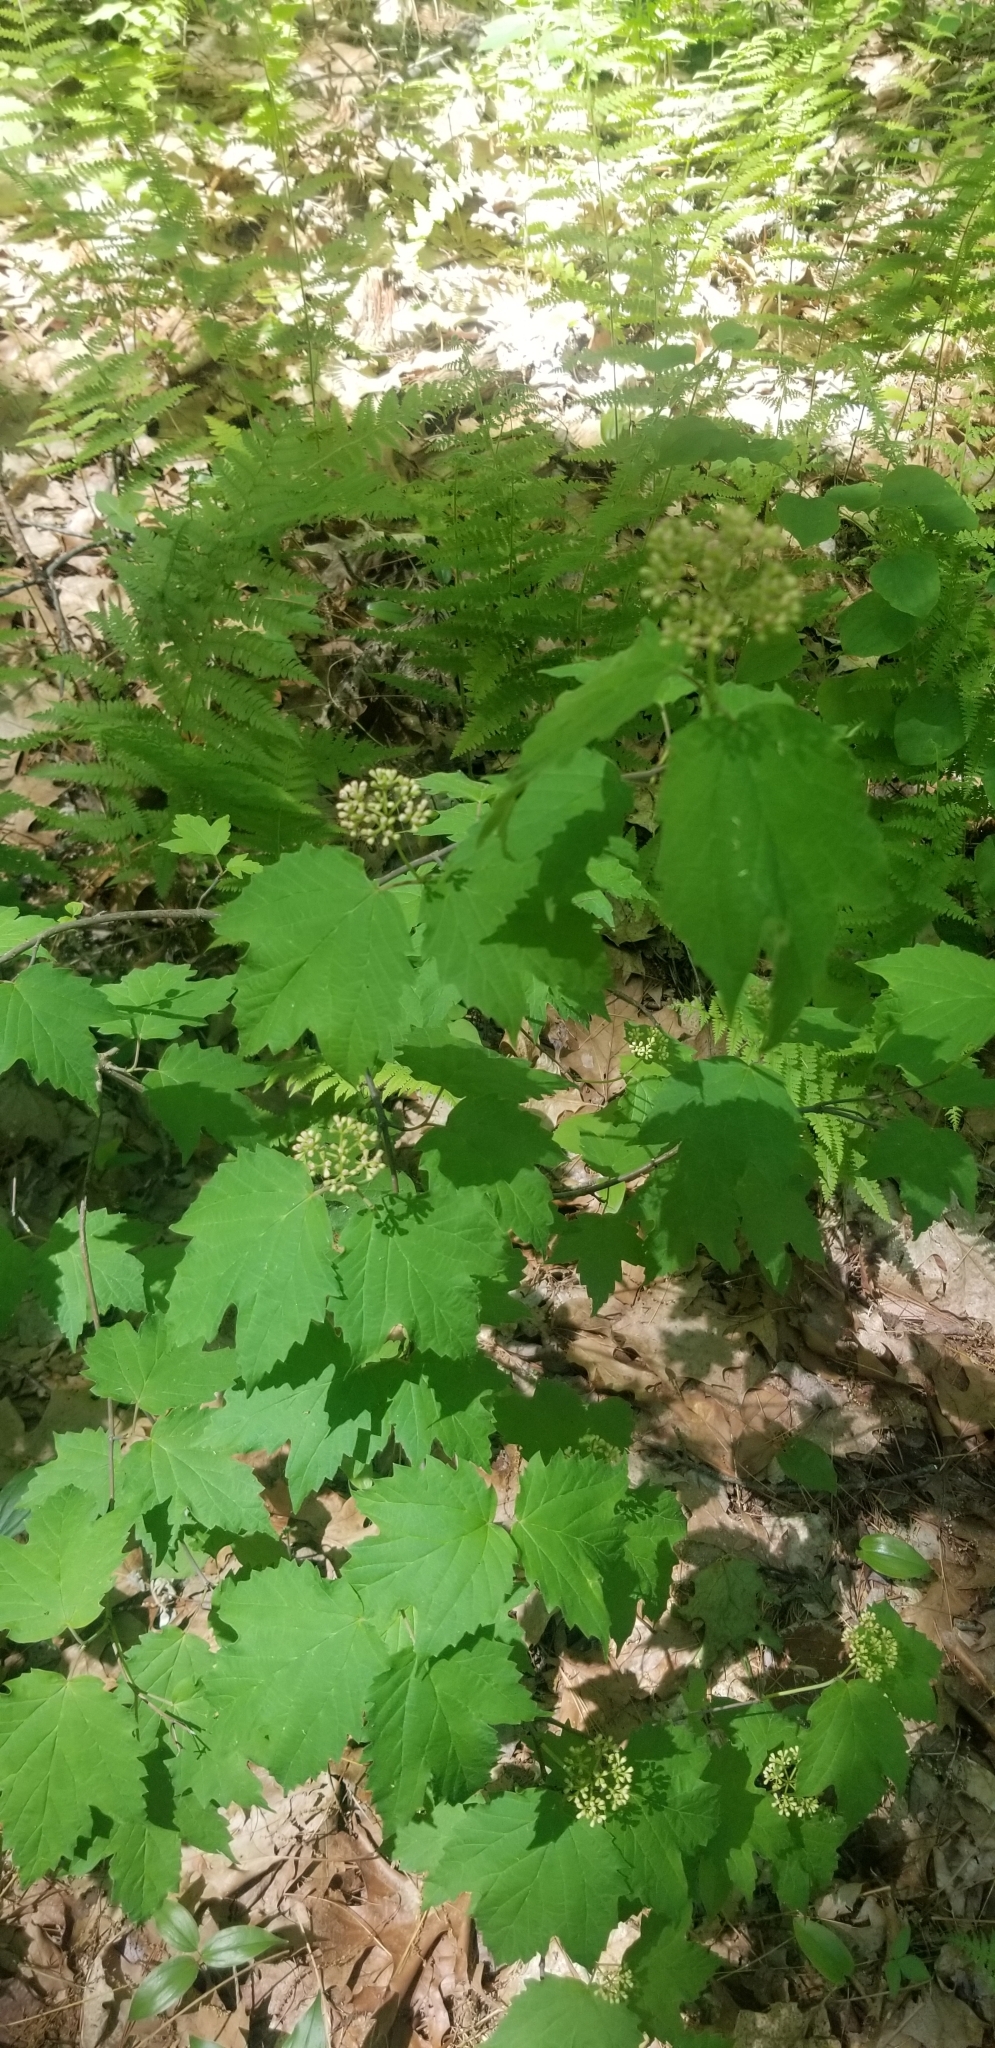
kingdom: Plantae
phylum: Tracheophyta
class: Magnoliopsida
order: Dipsacales
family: Viburnaceae
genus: Viburnum
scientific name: Viburnum acerifolium
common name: Dockmackie
